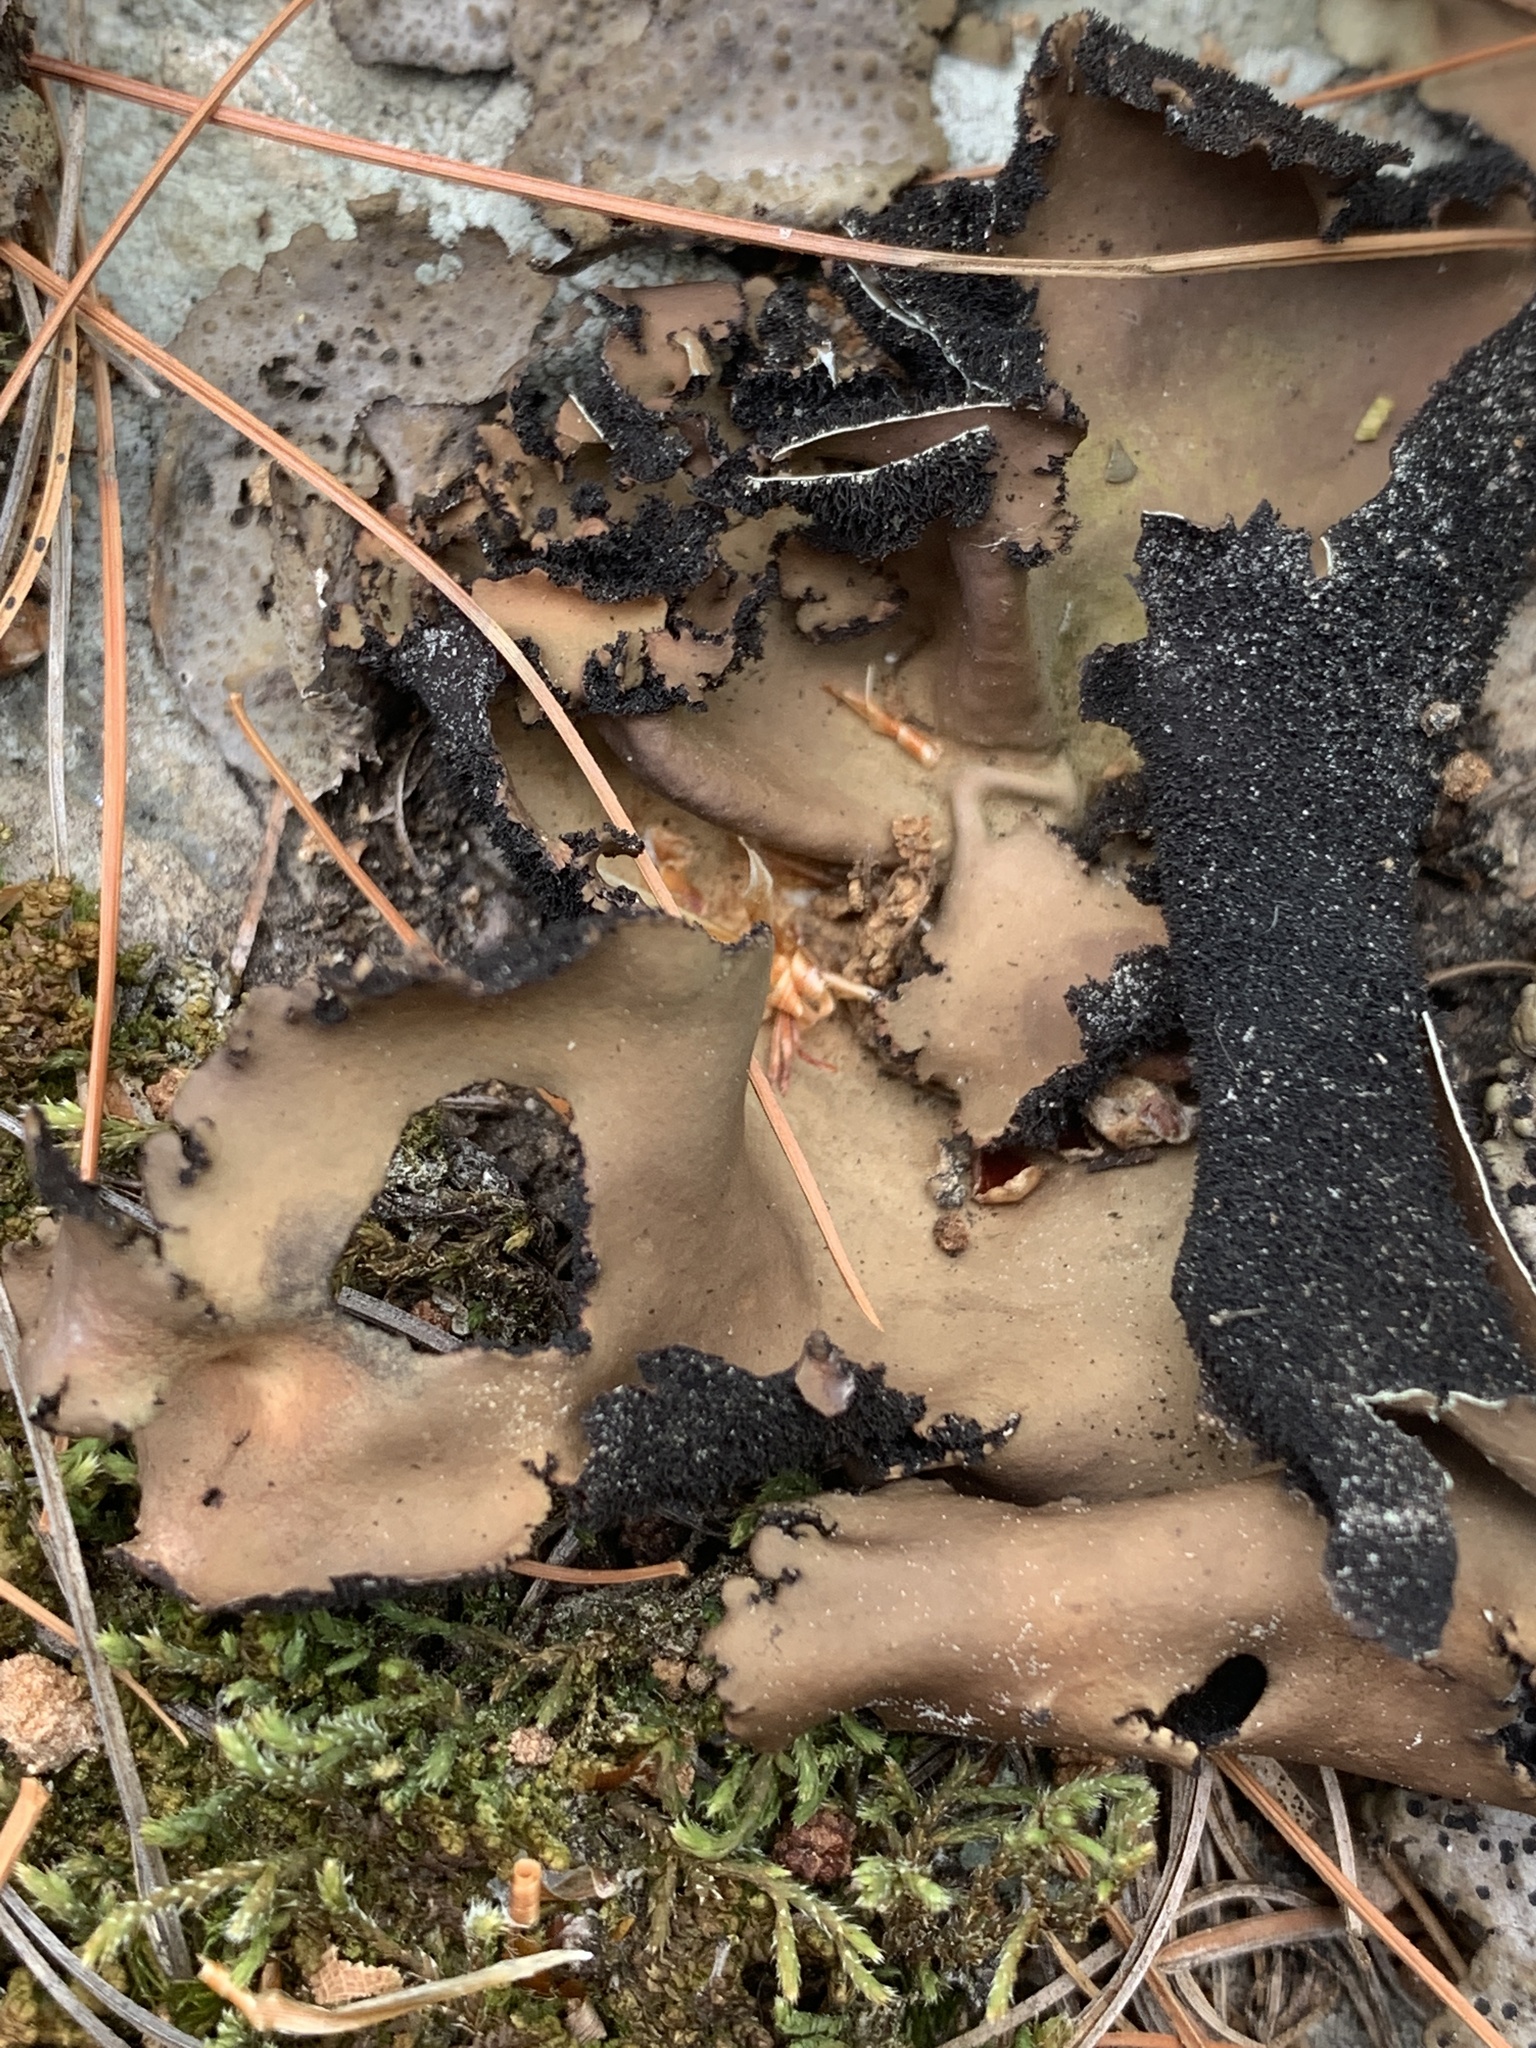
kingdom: Fungi
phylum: Ascomycota
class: Lecanoromycetes
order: Umbilicariales
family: Umbilicariaceae
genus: Umbilicaria
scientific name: Umbilicaria mammulata
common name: Smooth rock tripe
